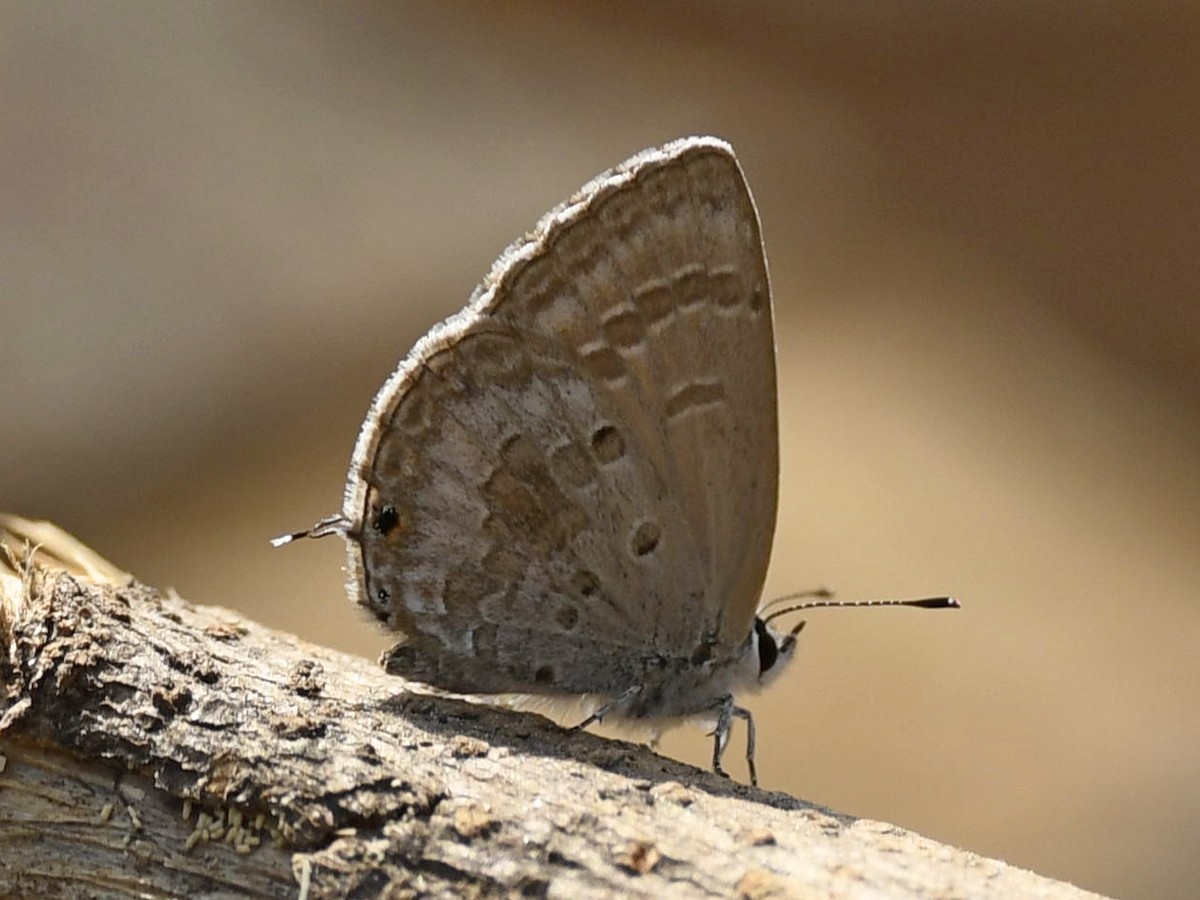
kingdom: Animalia
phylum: Arthropoda
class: Insecta
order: Lepidoptera
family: Lycaenidae
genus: Luthrodes
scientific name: Luthrodes pandava
